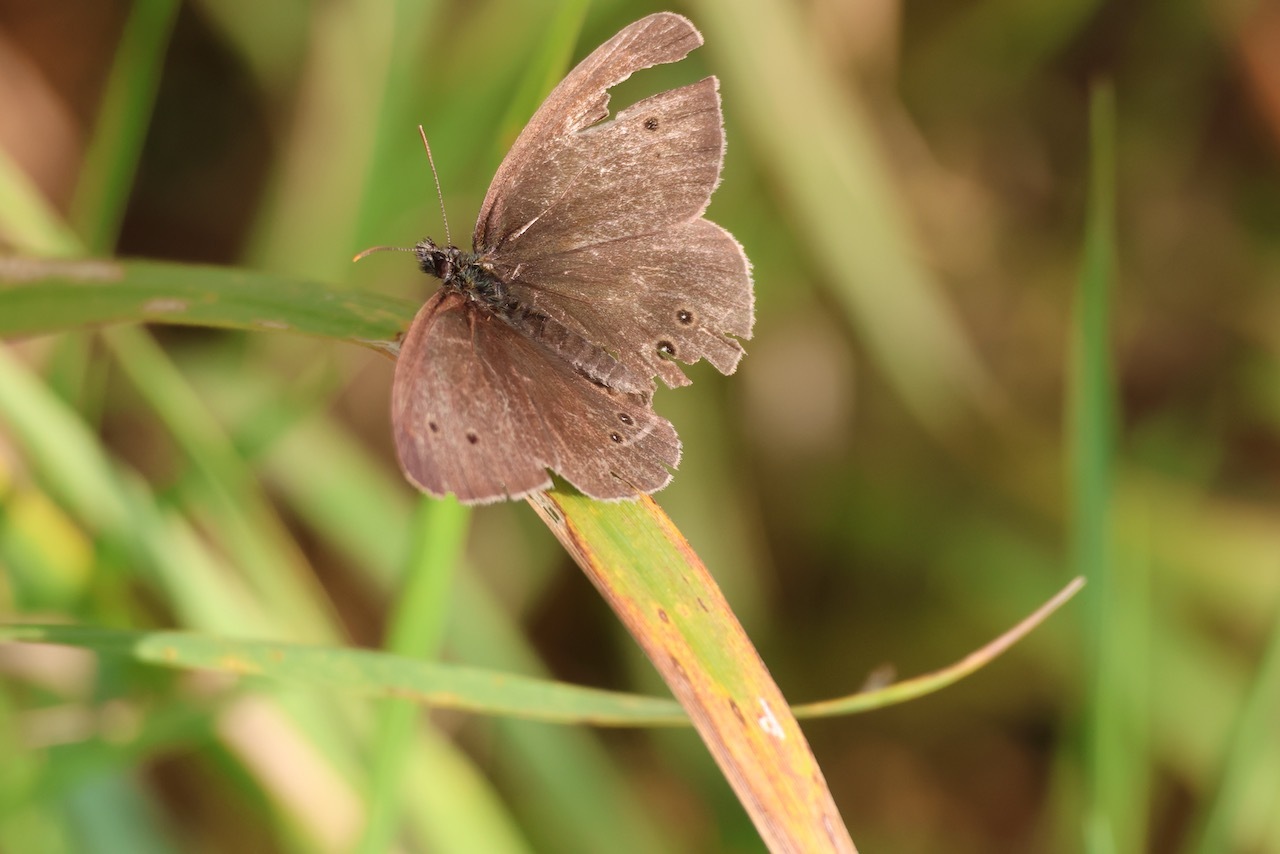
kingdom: Animalia
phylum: Arthropoda
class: Insecta
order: Lepidoptera
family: Nymphalidae
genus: Aphantopus
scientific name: Aphantopus hyperantus
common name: Ringlet
